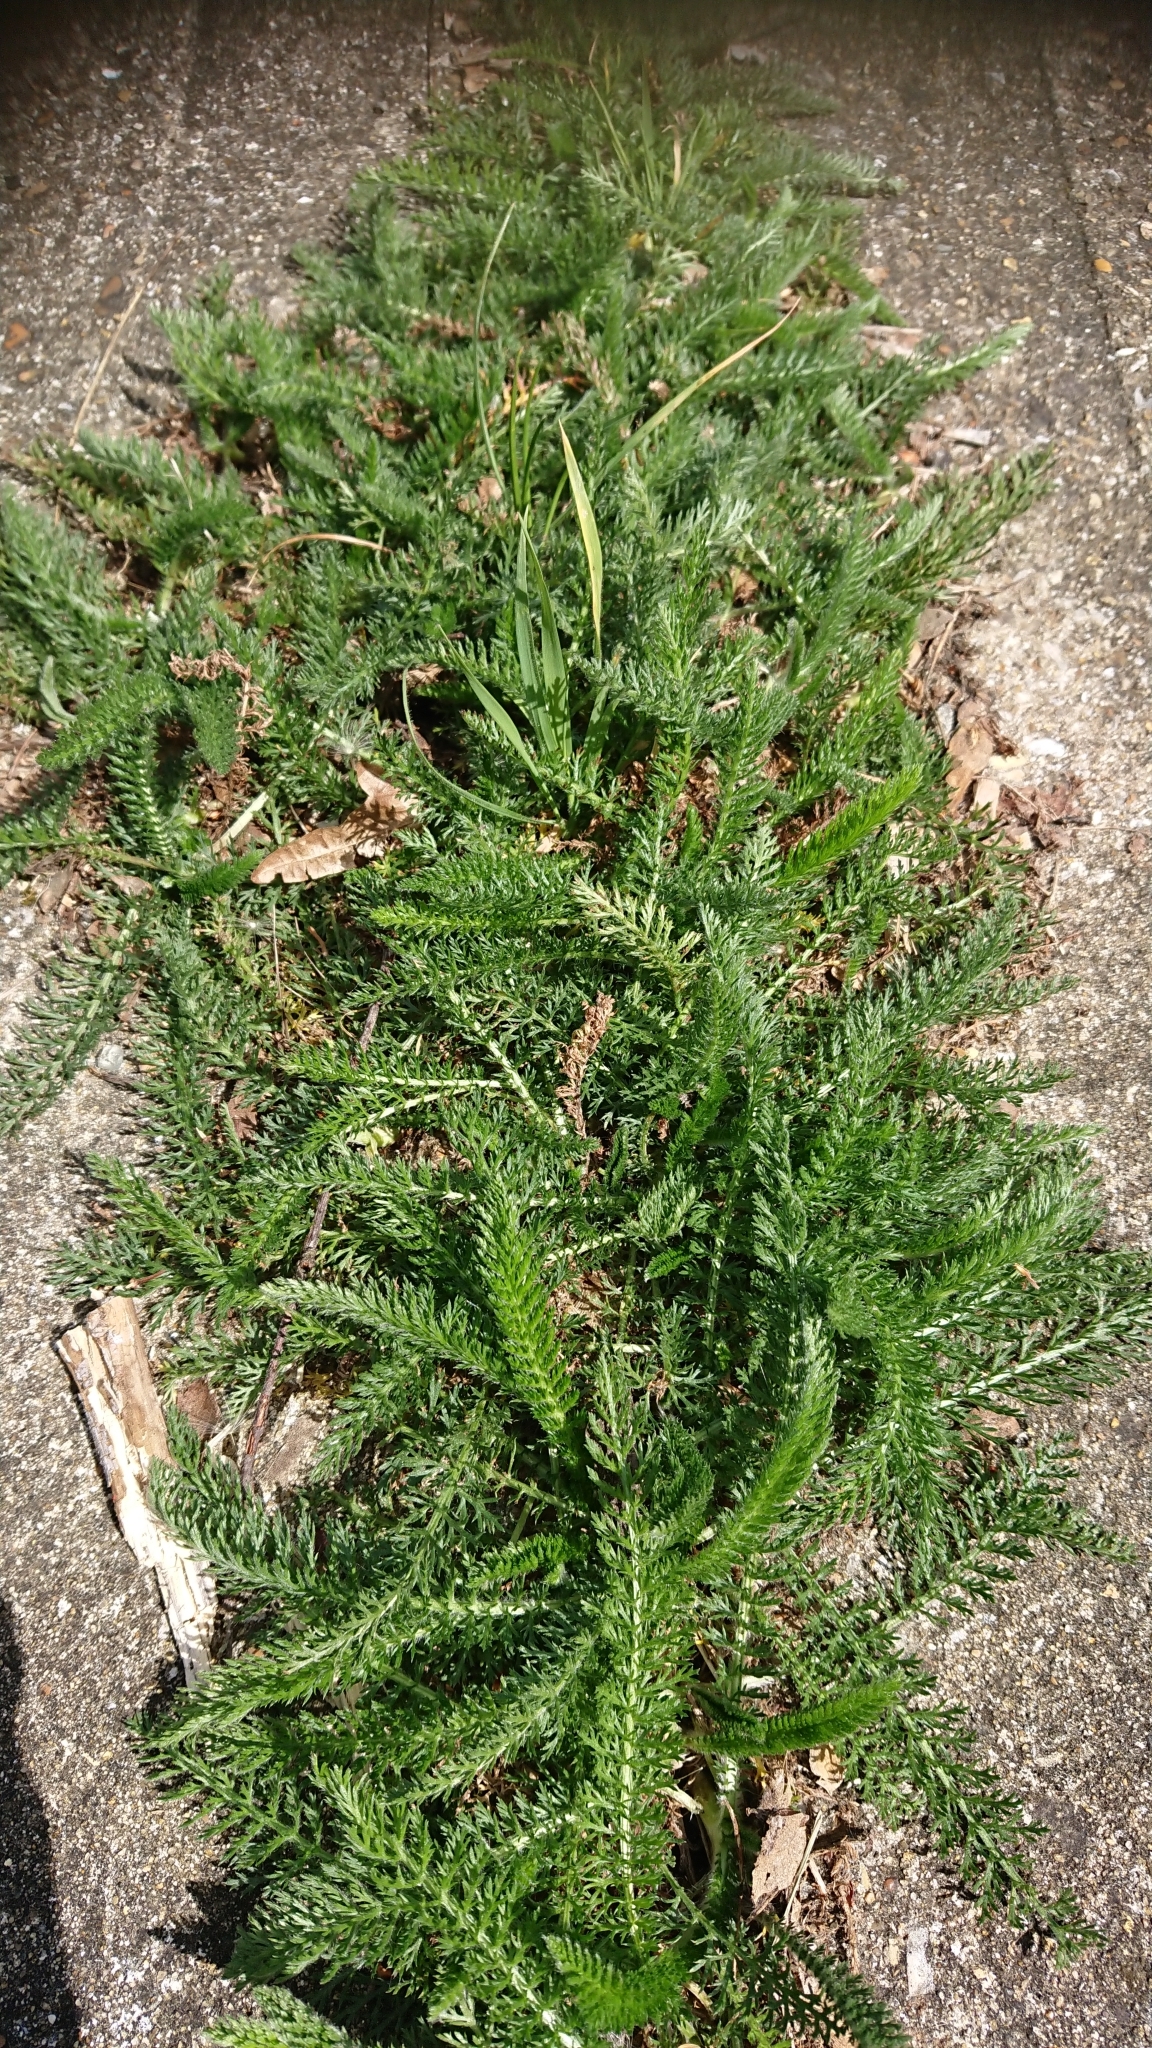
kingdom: Plantae
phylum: Tracheophyta
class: Magnoliopsida
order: Asterales
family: Asteraceae
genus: Achillea
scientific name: Achillea millefolium
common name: Yarrow
